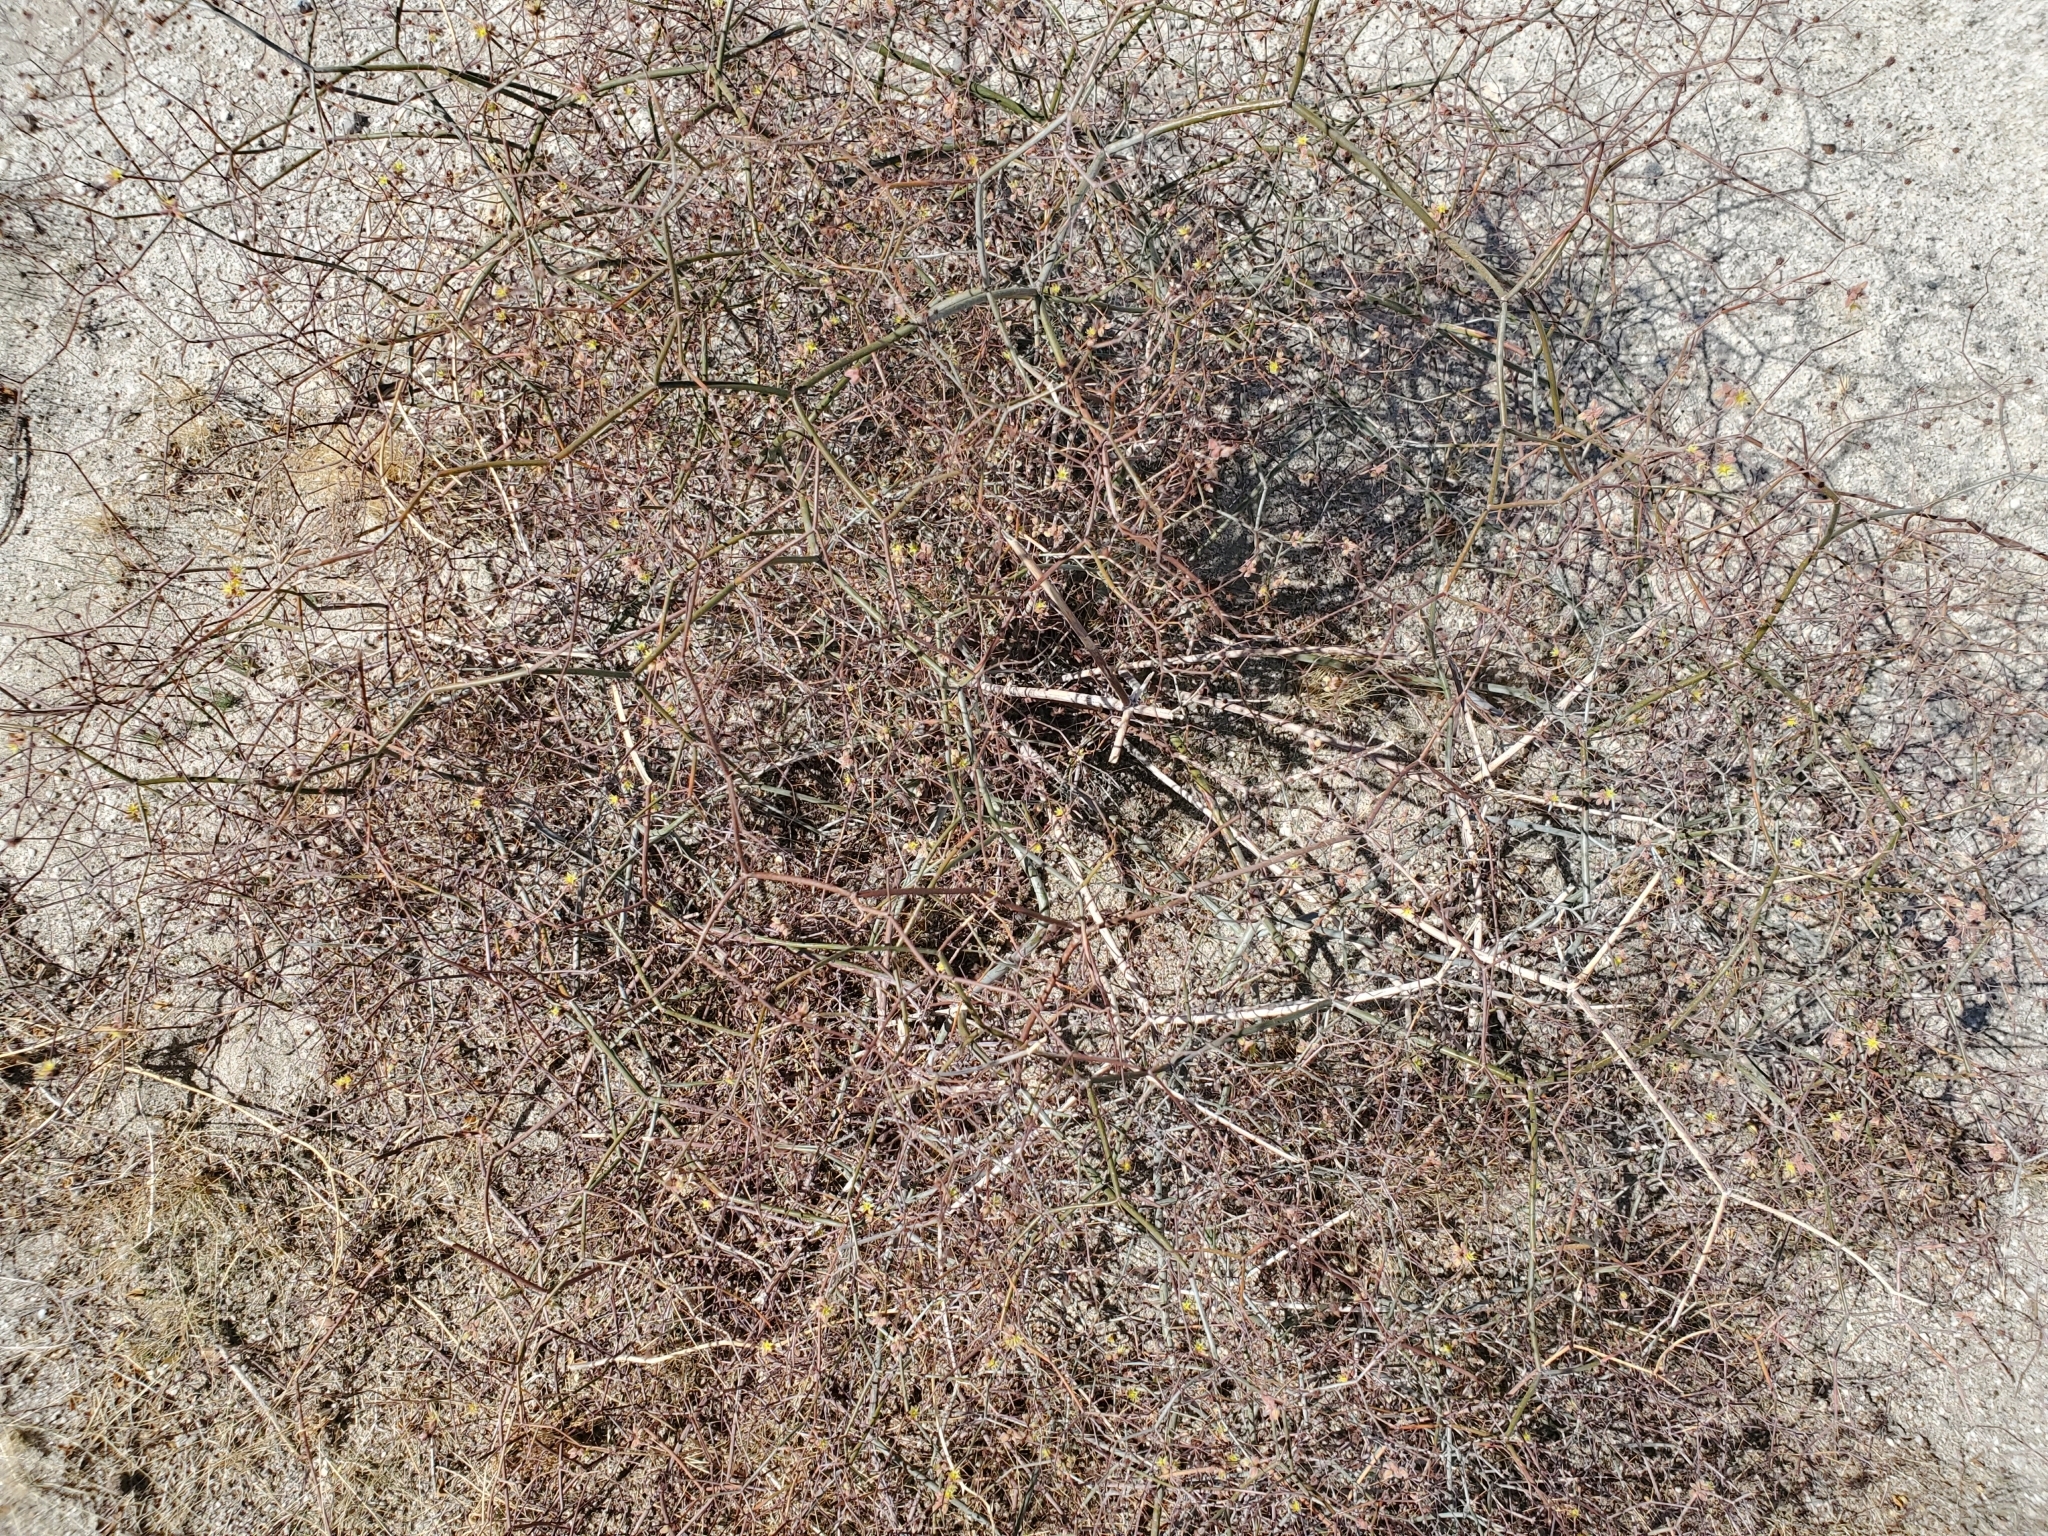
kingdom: Plantae
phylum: Tracheophyta
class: Magnoliopsida
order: Caryophyllales
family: Polygonaceae
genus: Eriogonum
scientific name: Eriogonum inflatum
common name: Desert trumpet
